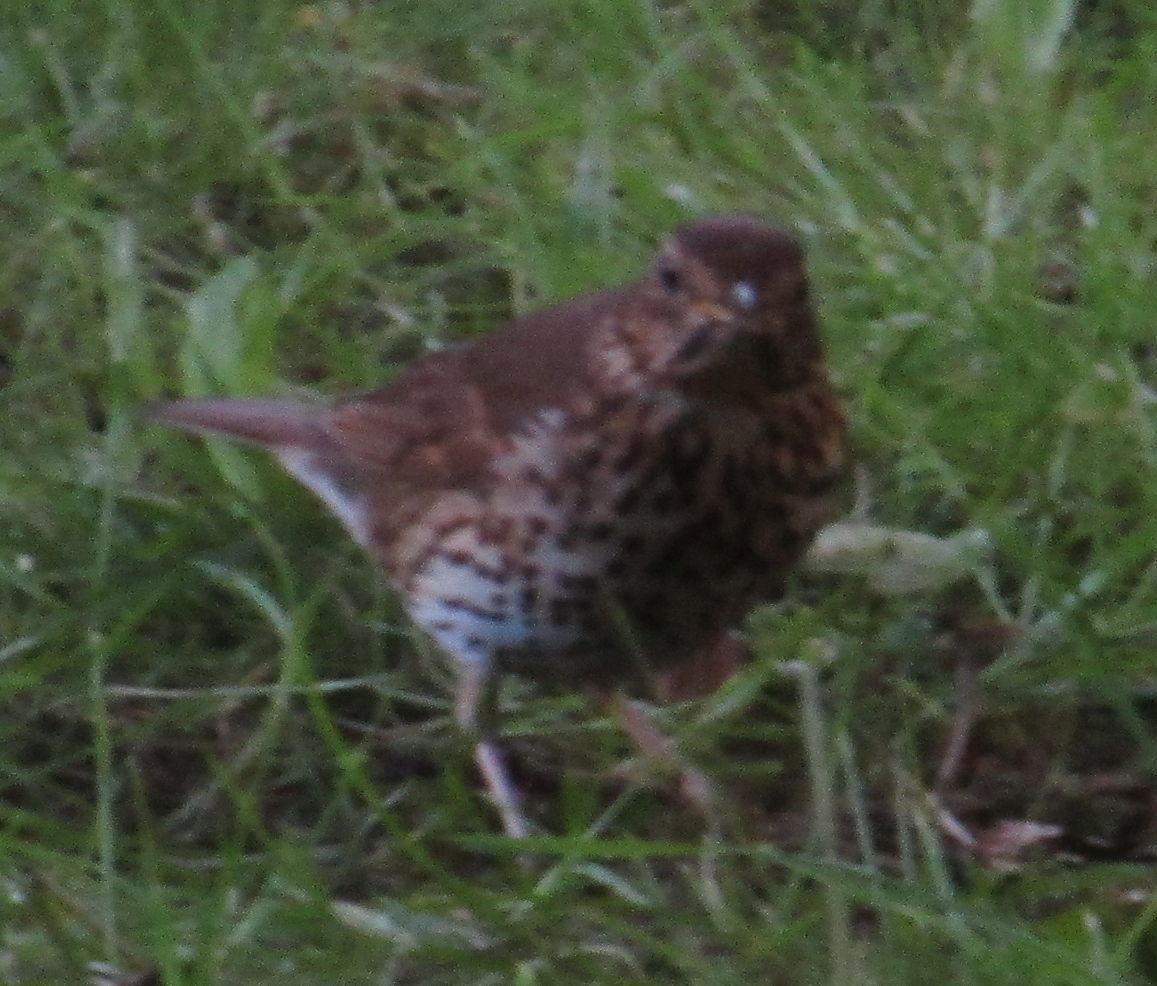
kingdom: Animalia
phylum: Chordata
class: Aves
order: Passeriformes
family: Turdidae
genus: Turdus
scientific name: Turdus philomelos
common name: Song thrush
